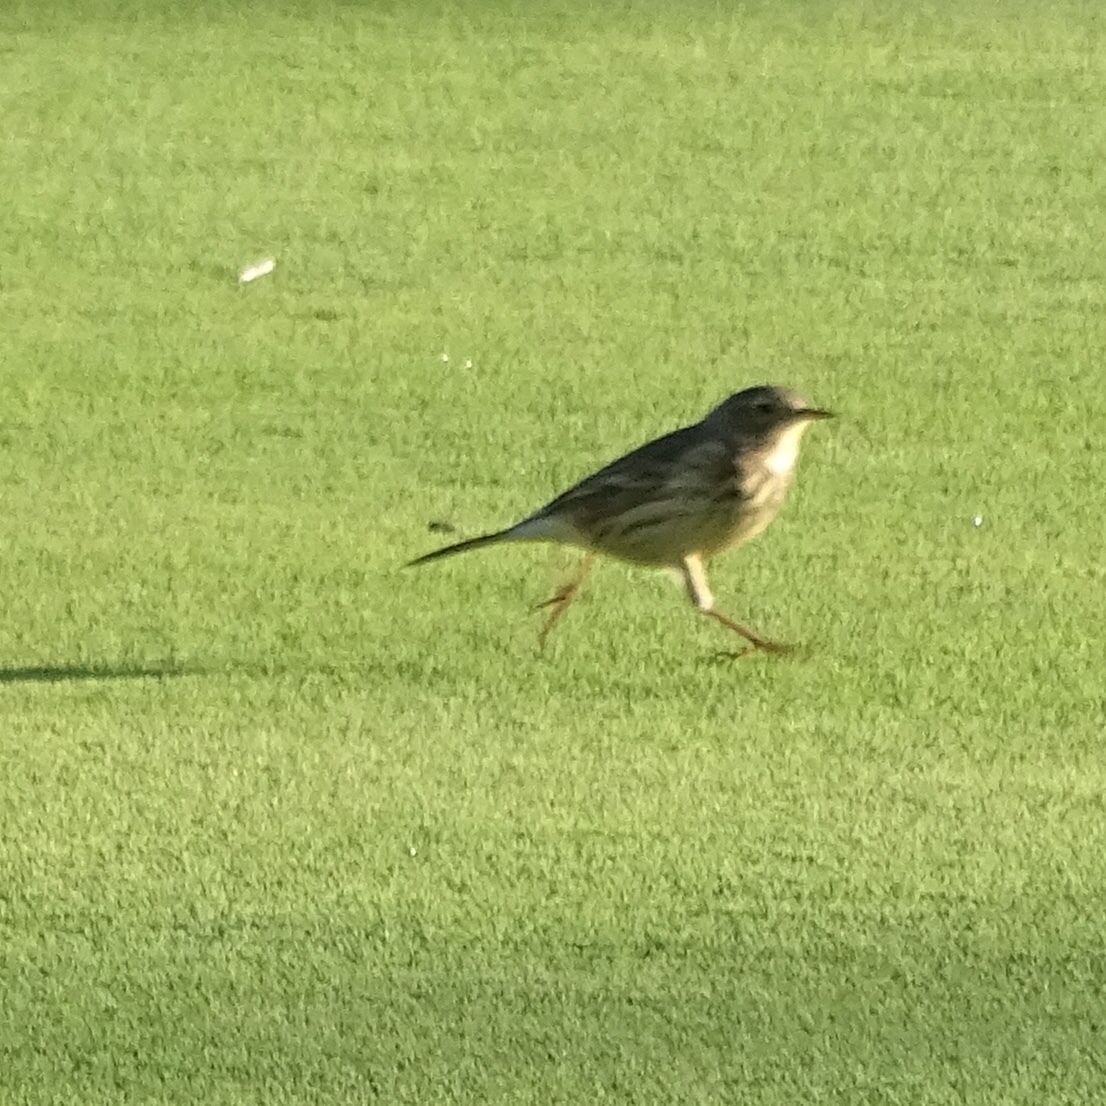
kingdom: Animalia
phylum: Chordata
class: Aves
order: Passeriformes
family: Motacillidae
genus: Anthus
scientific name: Anthus rubescens
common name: Buff-bellied pipit
